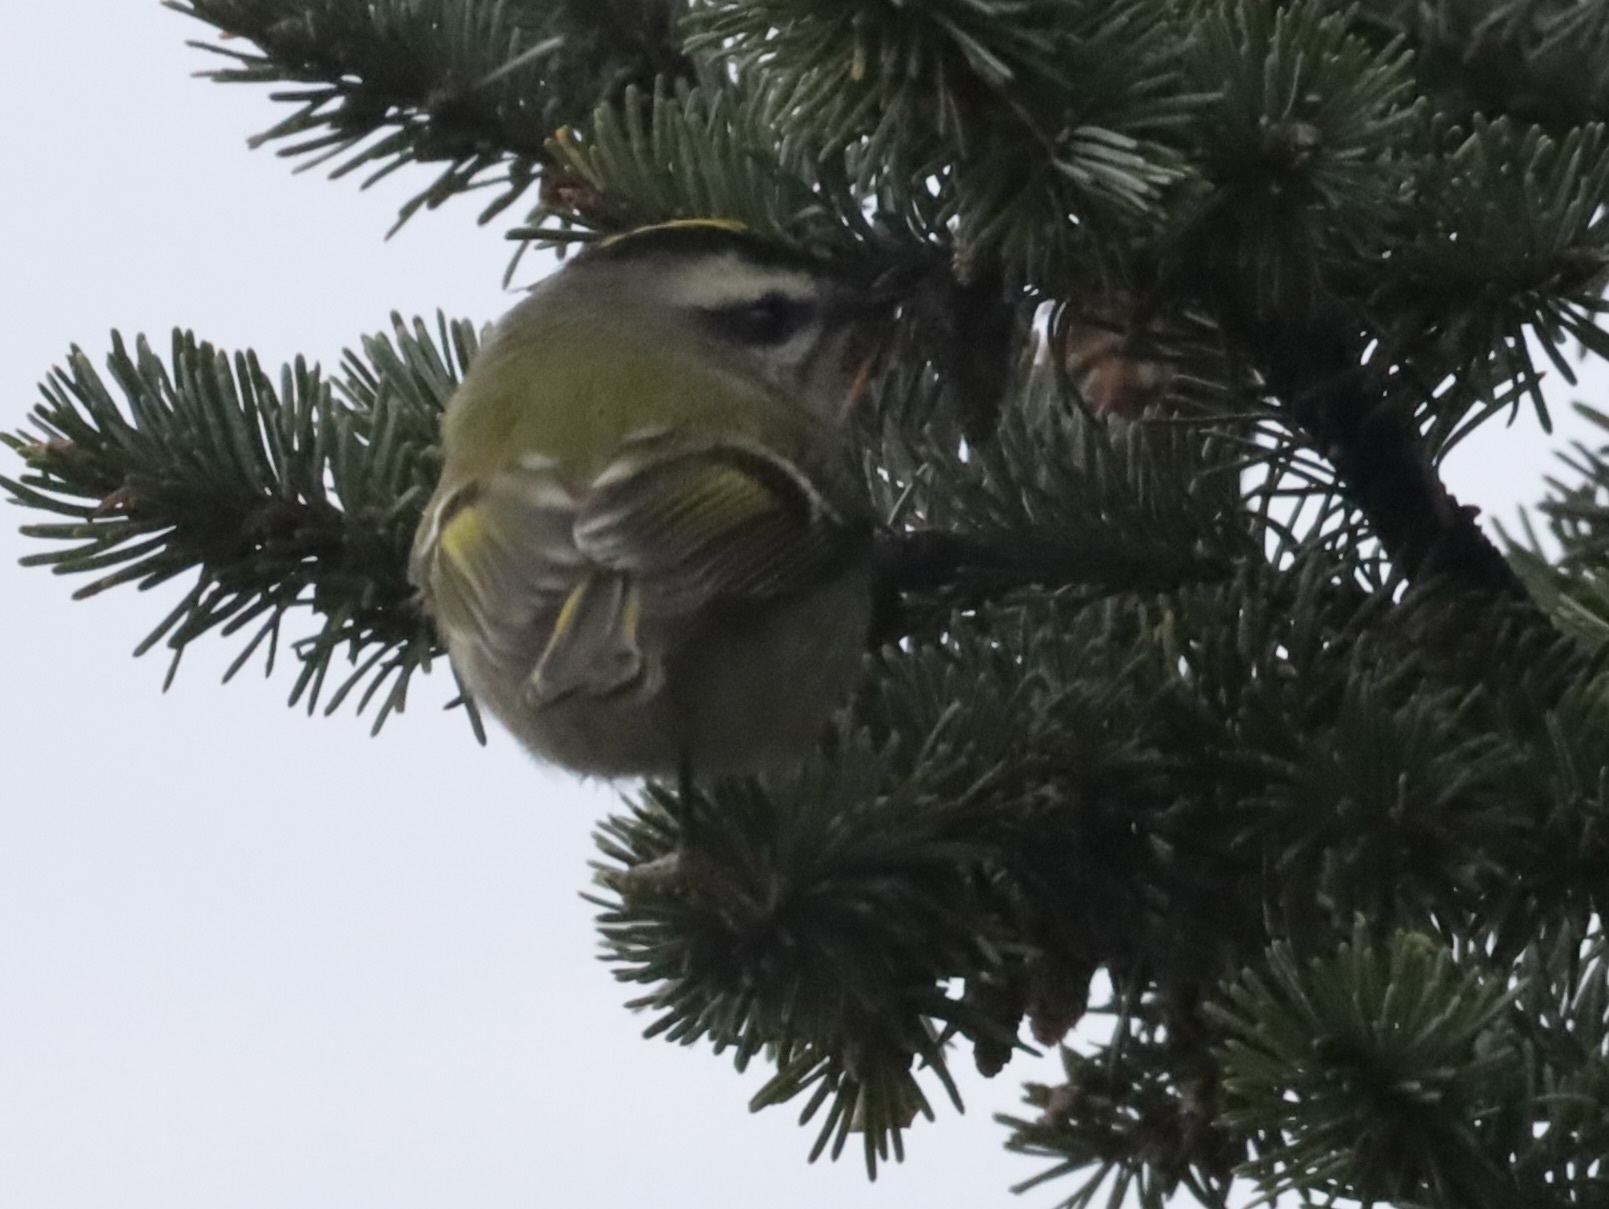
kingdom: Animalia
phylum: Chordata
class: Aves
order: Passeriformes
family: Regulidae
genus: Regulus
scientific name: Regulus satrapa
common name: Golden-crowned kinglet
